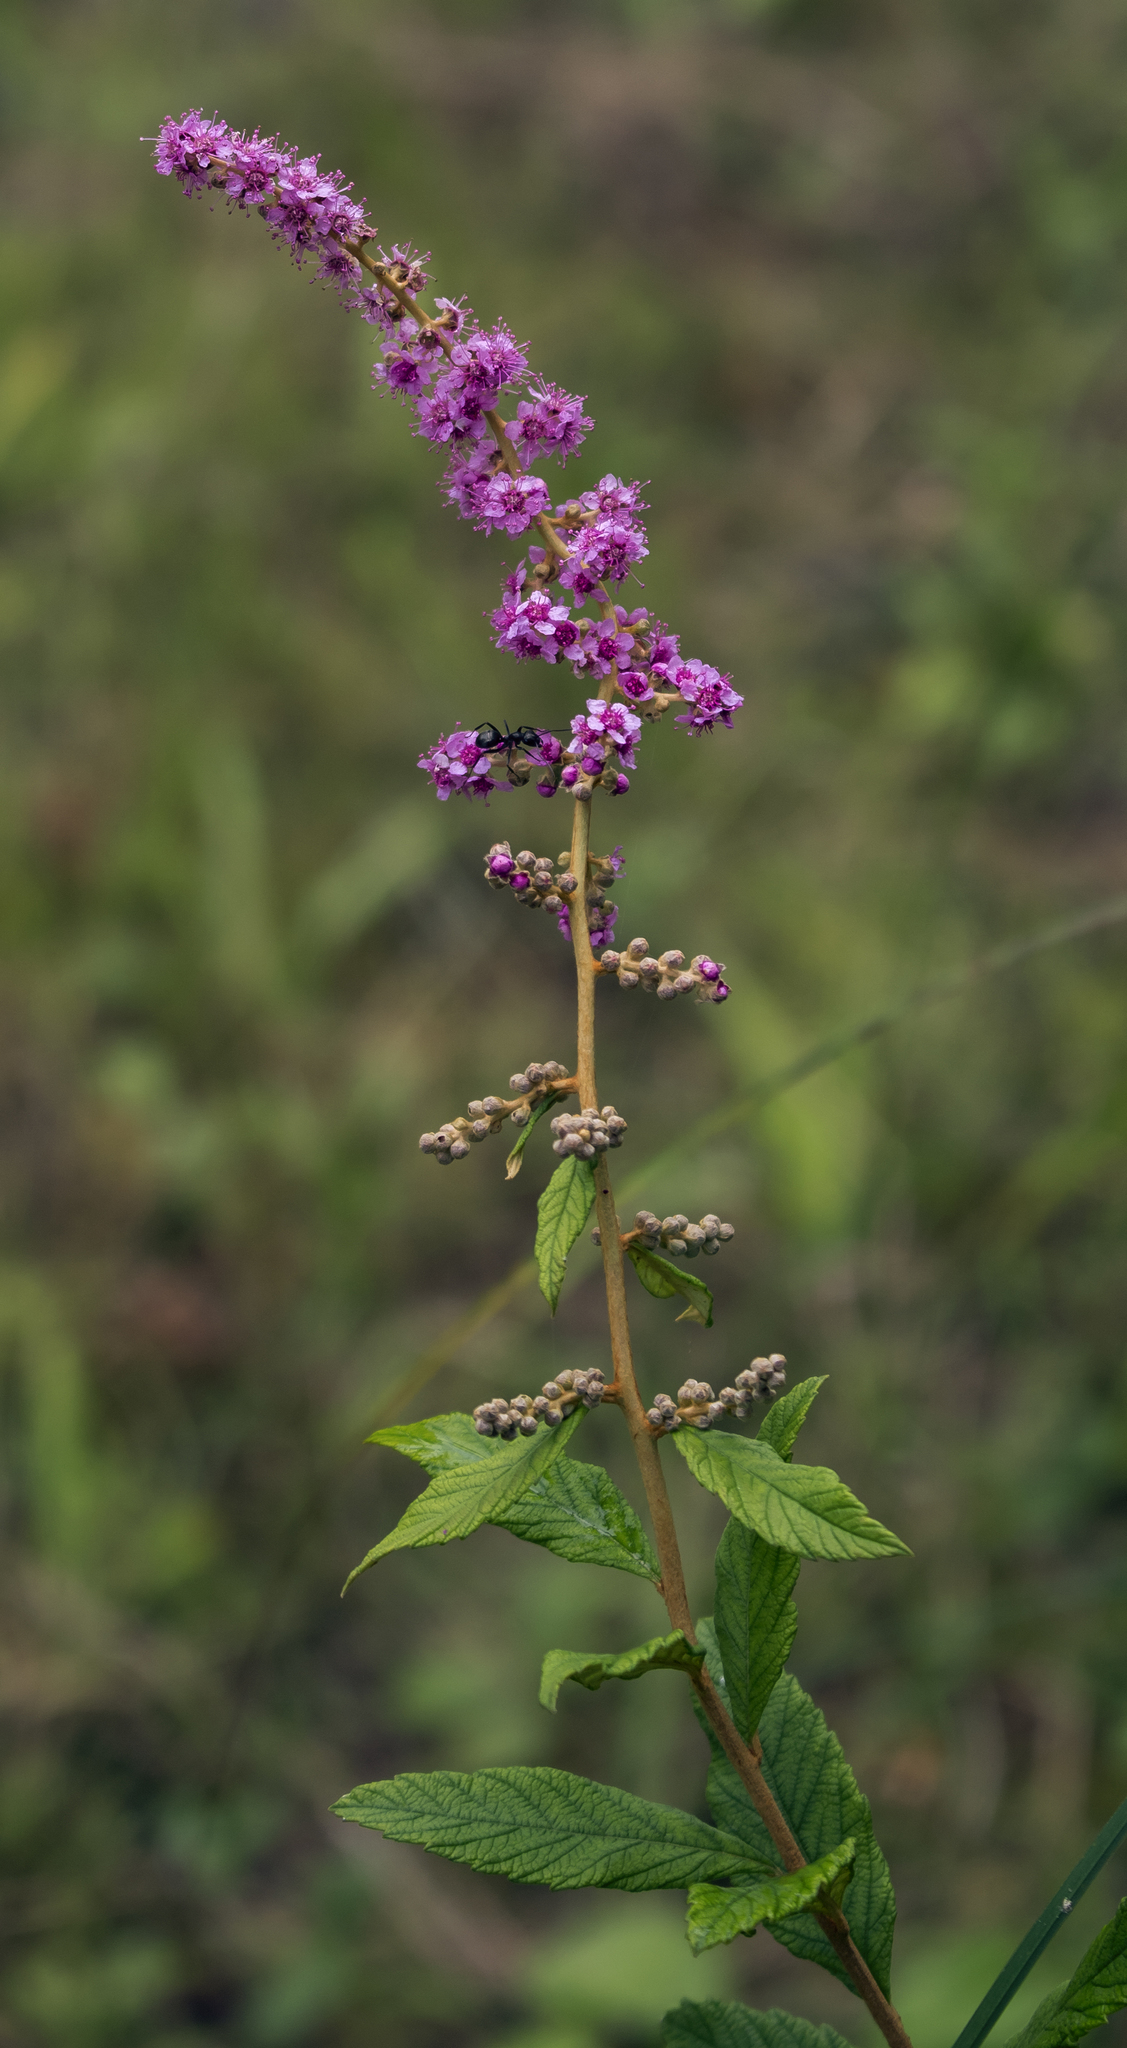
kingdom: Plantae
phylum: Tracheophyta
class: Magnoliopsida
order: Rosales
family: Rosaceae
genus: Spiraea
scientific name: Spiraea tomentosa
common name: Hardhack
